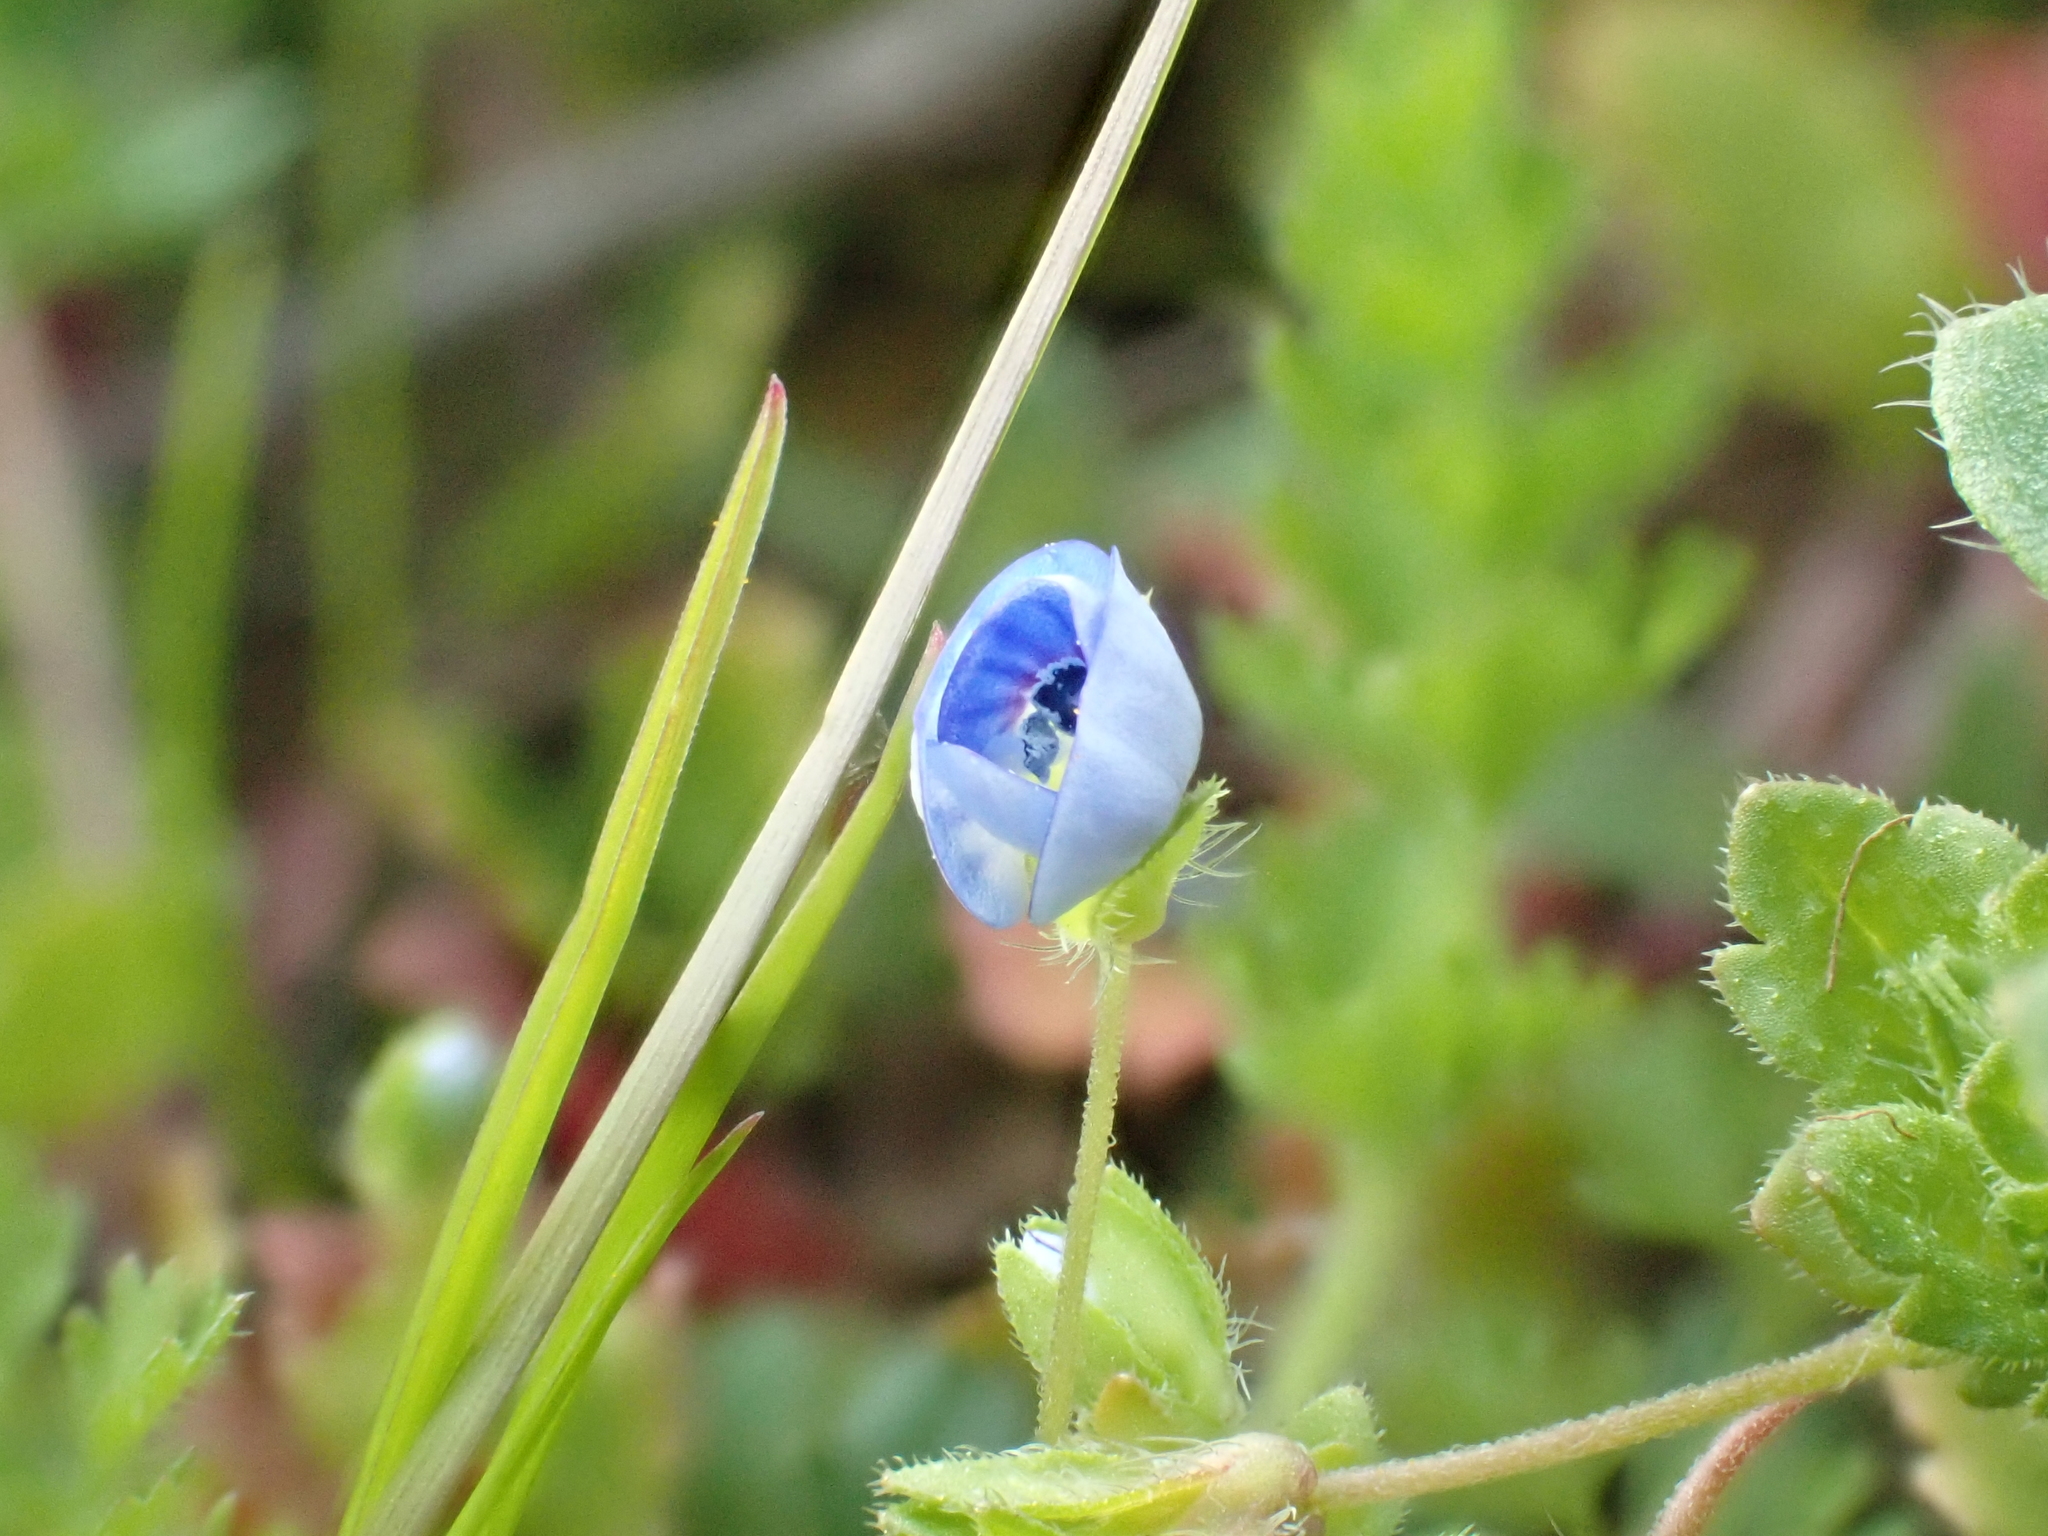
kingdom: Plantae
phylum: Tracheophyta
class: Magnoliopsida
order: Lamiales
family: Plantaginaceae
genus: Veronica
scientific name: Veronica persica
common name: Common field-speedwell
